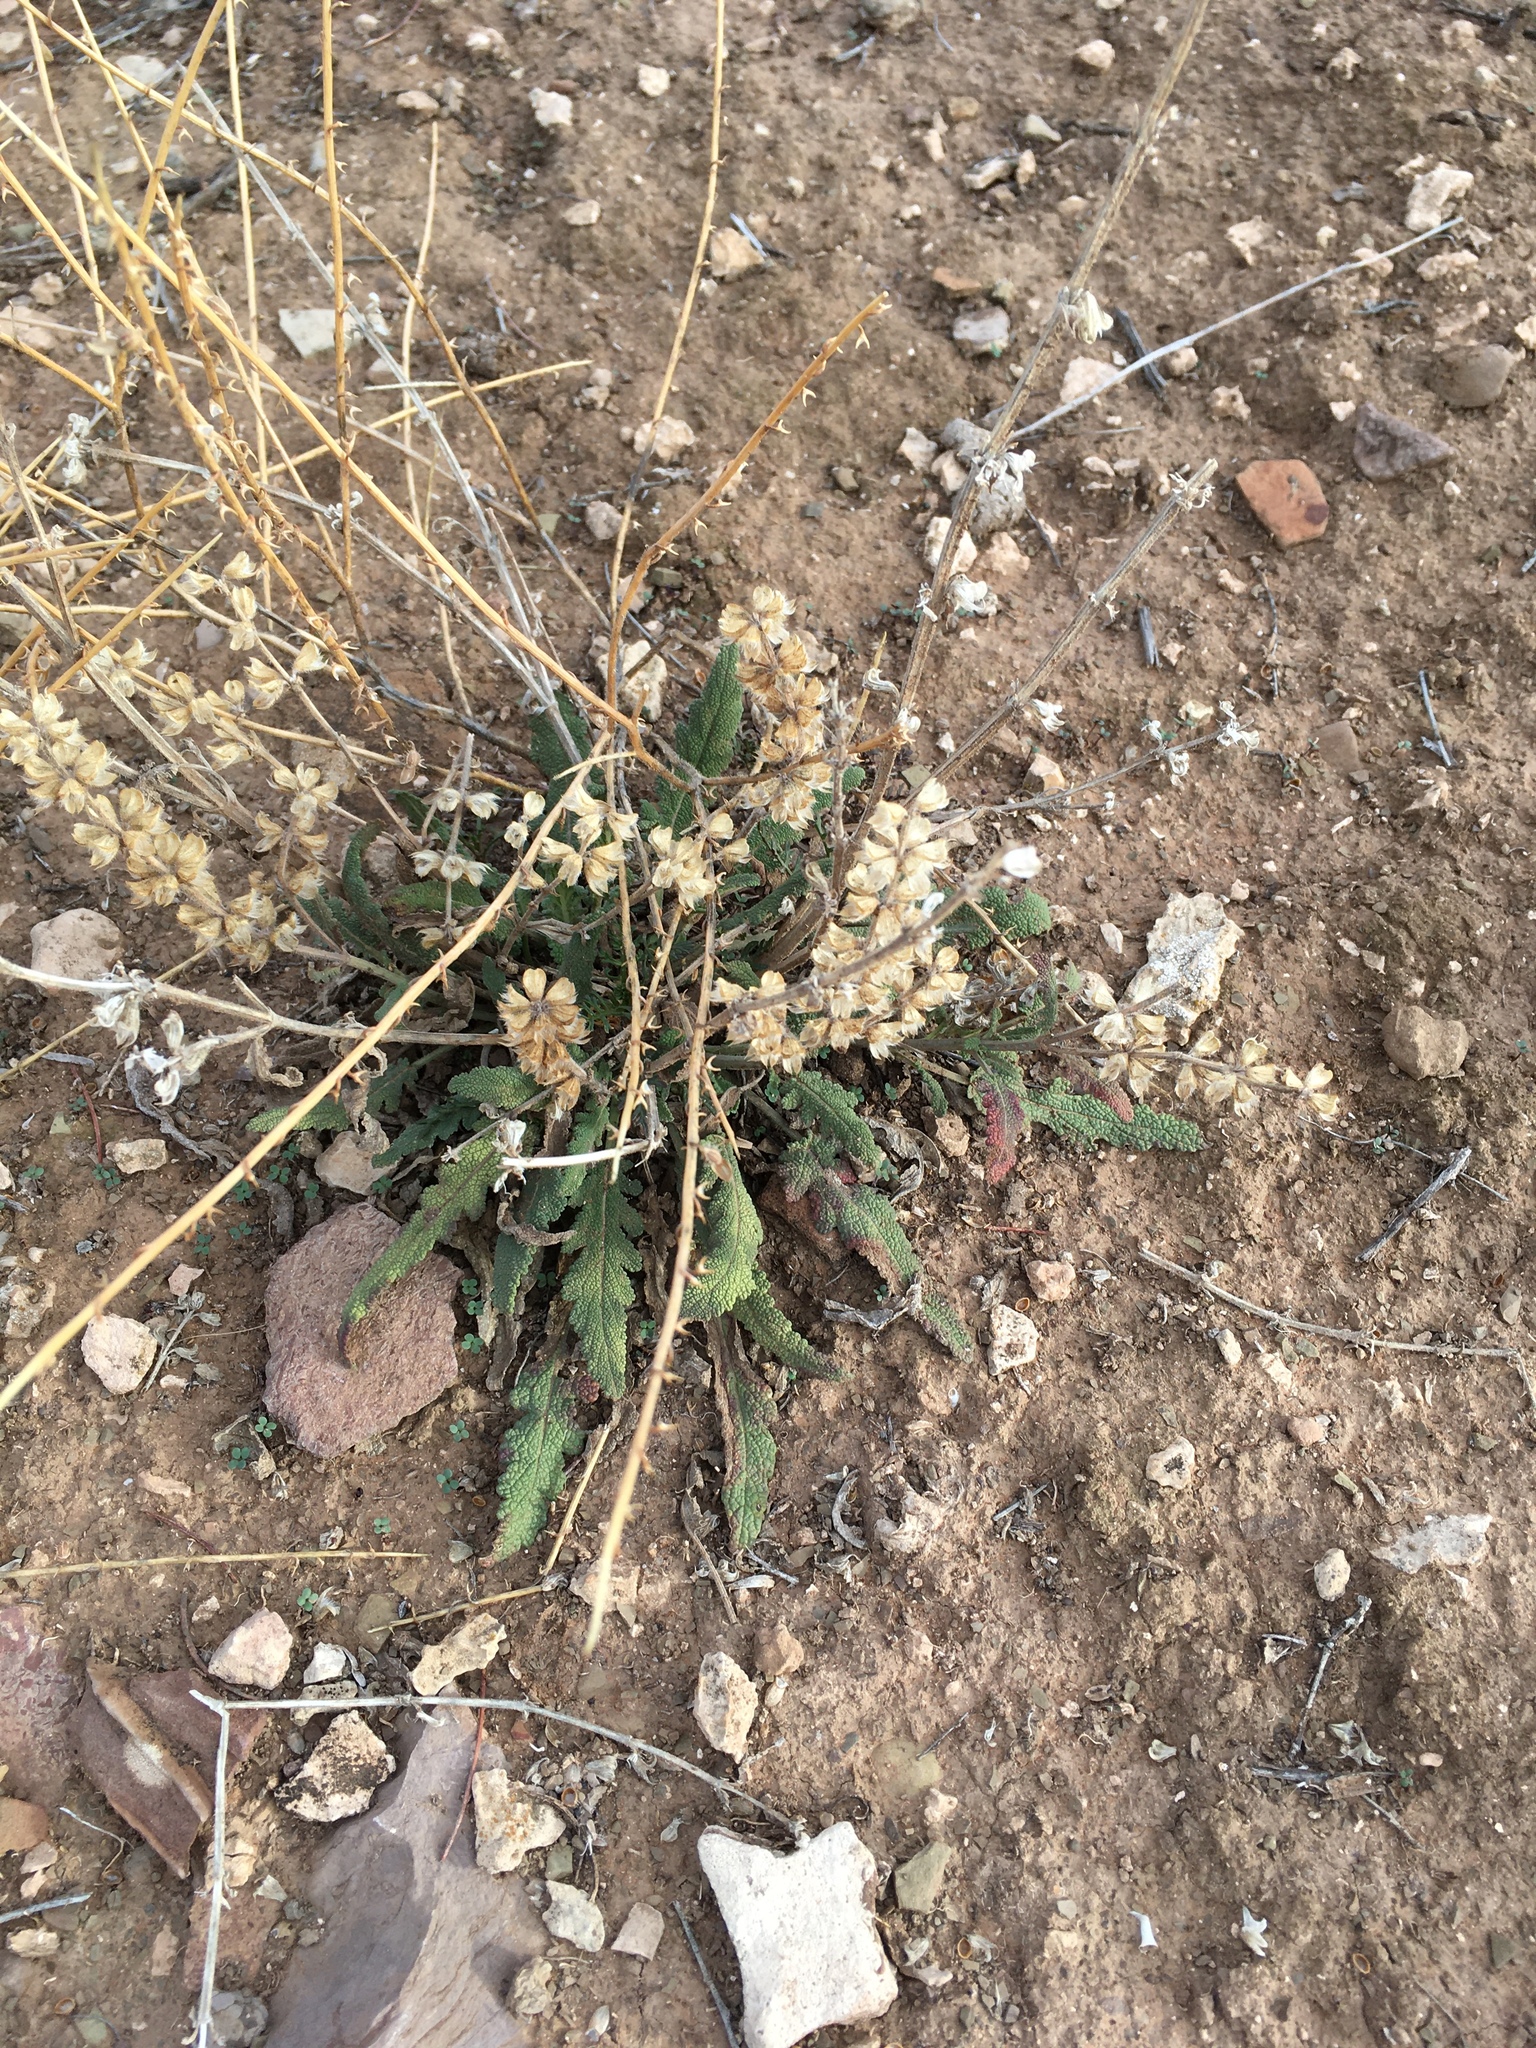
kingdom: Plantae
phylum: Tracheophyta
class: Magnoliopsida
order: Lamiales
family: Lamiaceae
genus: Salvia
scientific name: Salvia verbenaca
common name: Wild clary
